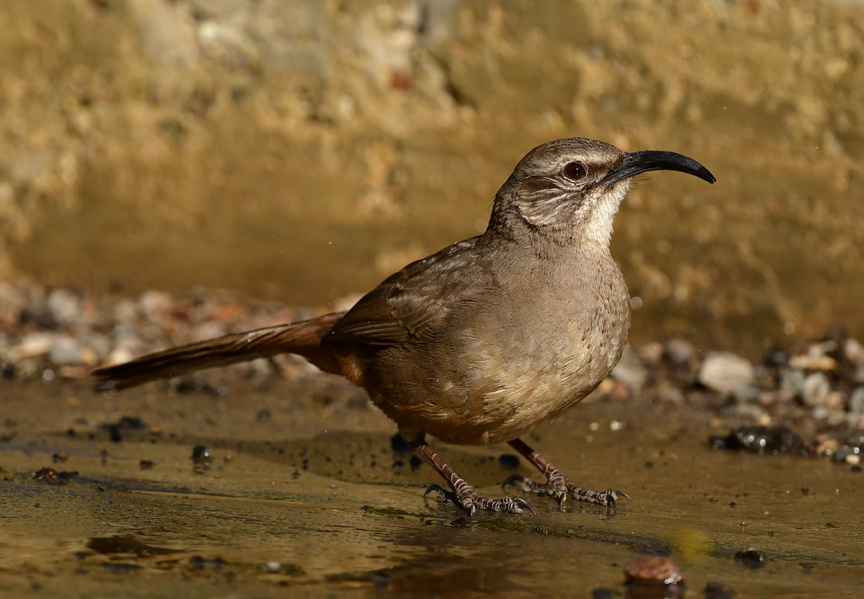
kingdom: Animalia
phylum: Chordata
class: Aves
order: Passeriformes
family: Mimidae
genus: Toxostoma
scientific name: Toxostoma redivivum
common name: California thrasher
